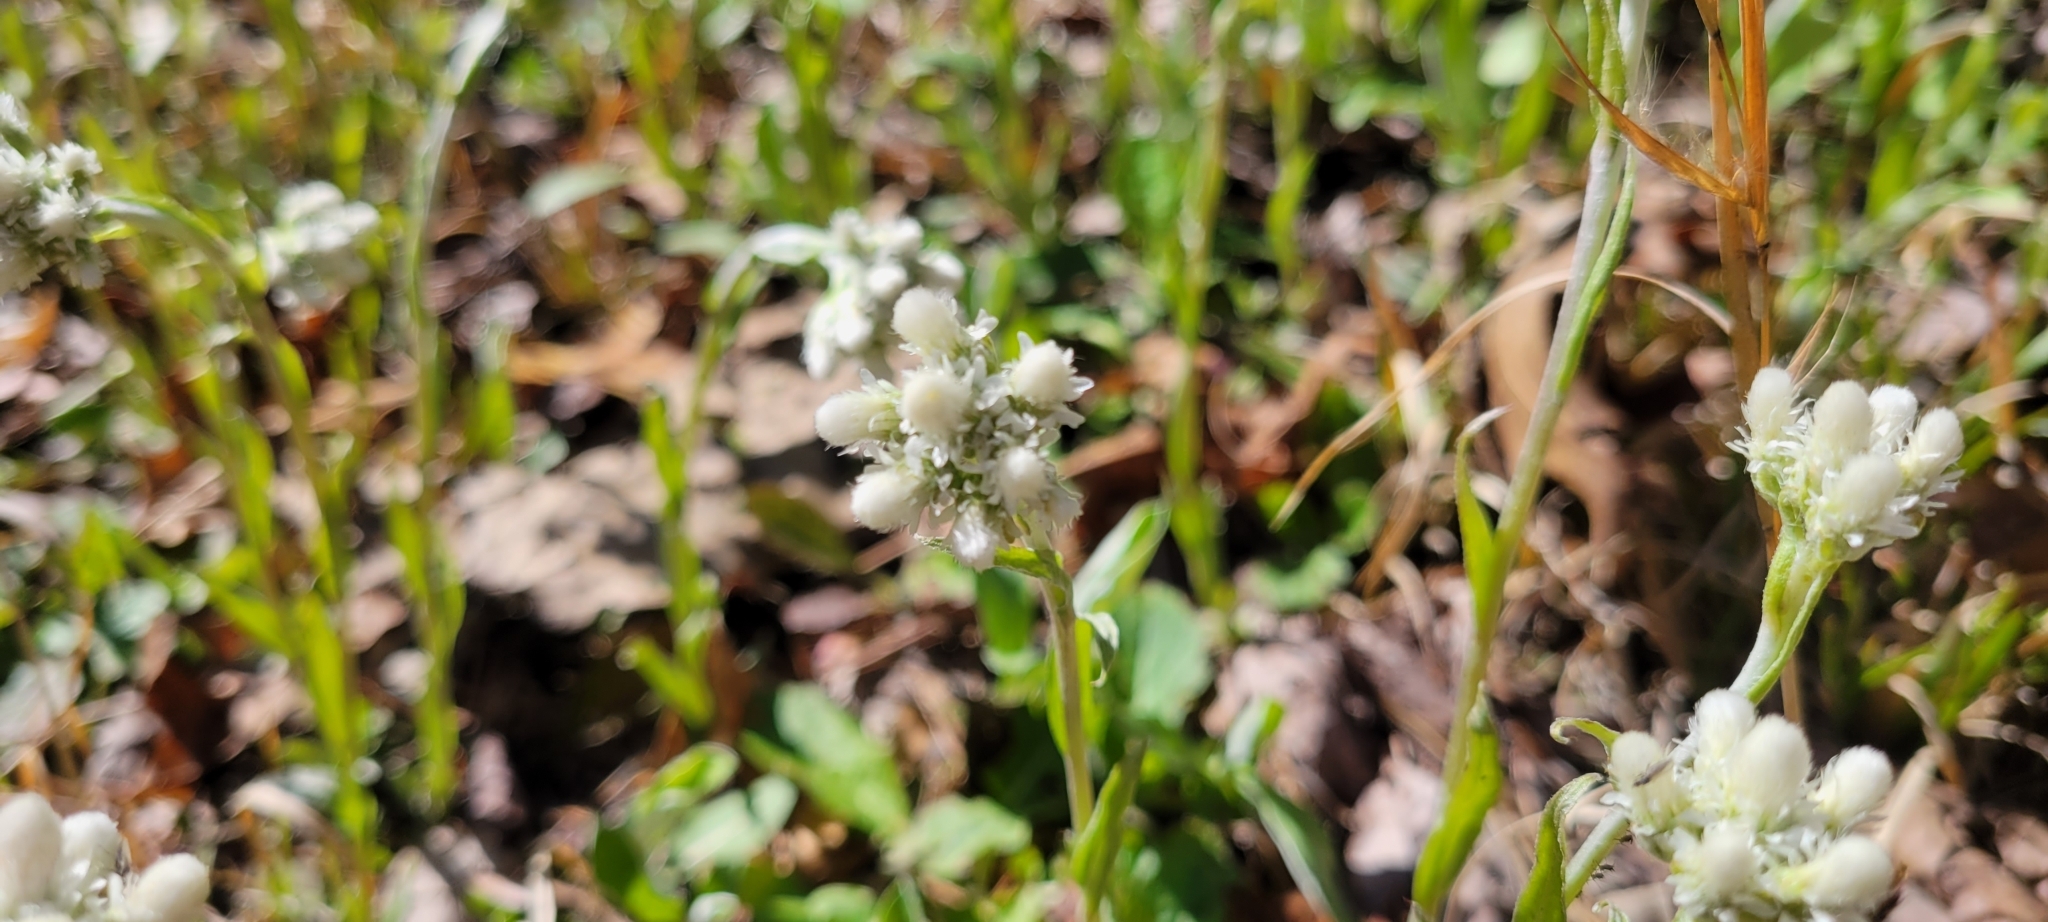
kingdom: Plantae
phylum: Tracheophyta
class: Magnoliopsida
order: Asterales
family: Asteraceae
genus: Antennaria
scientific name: Antennaria plantaginifolia
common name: Plantain-leaved pussytoes
